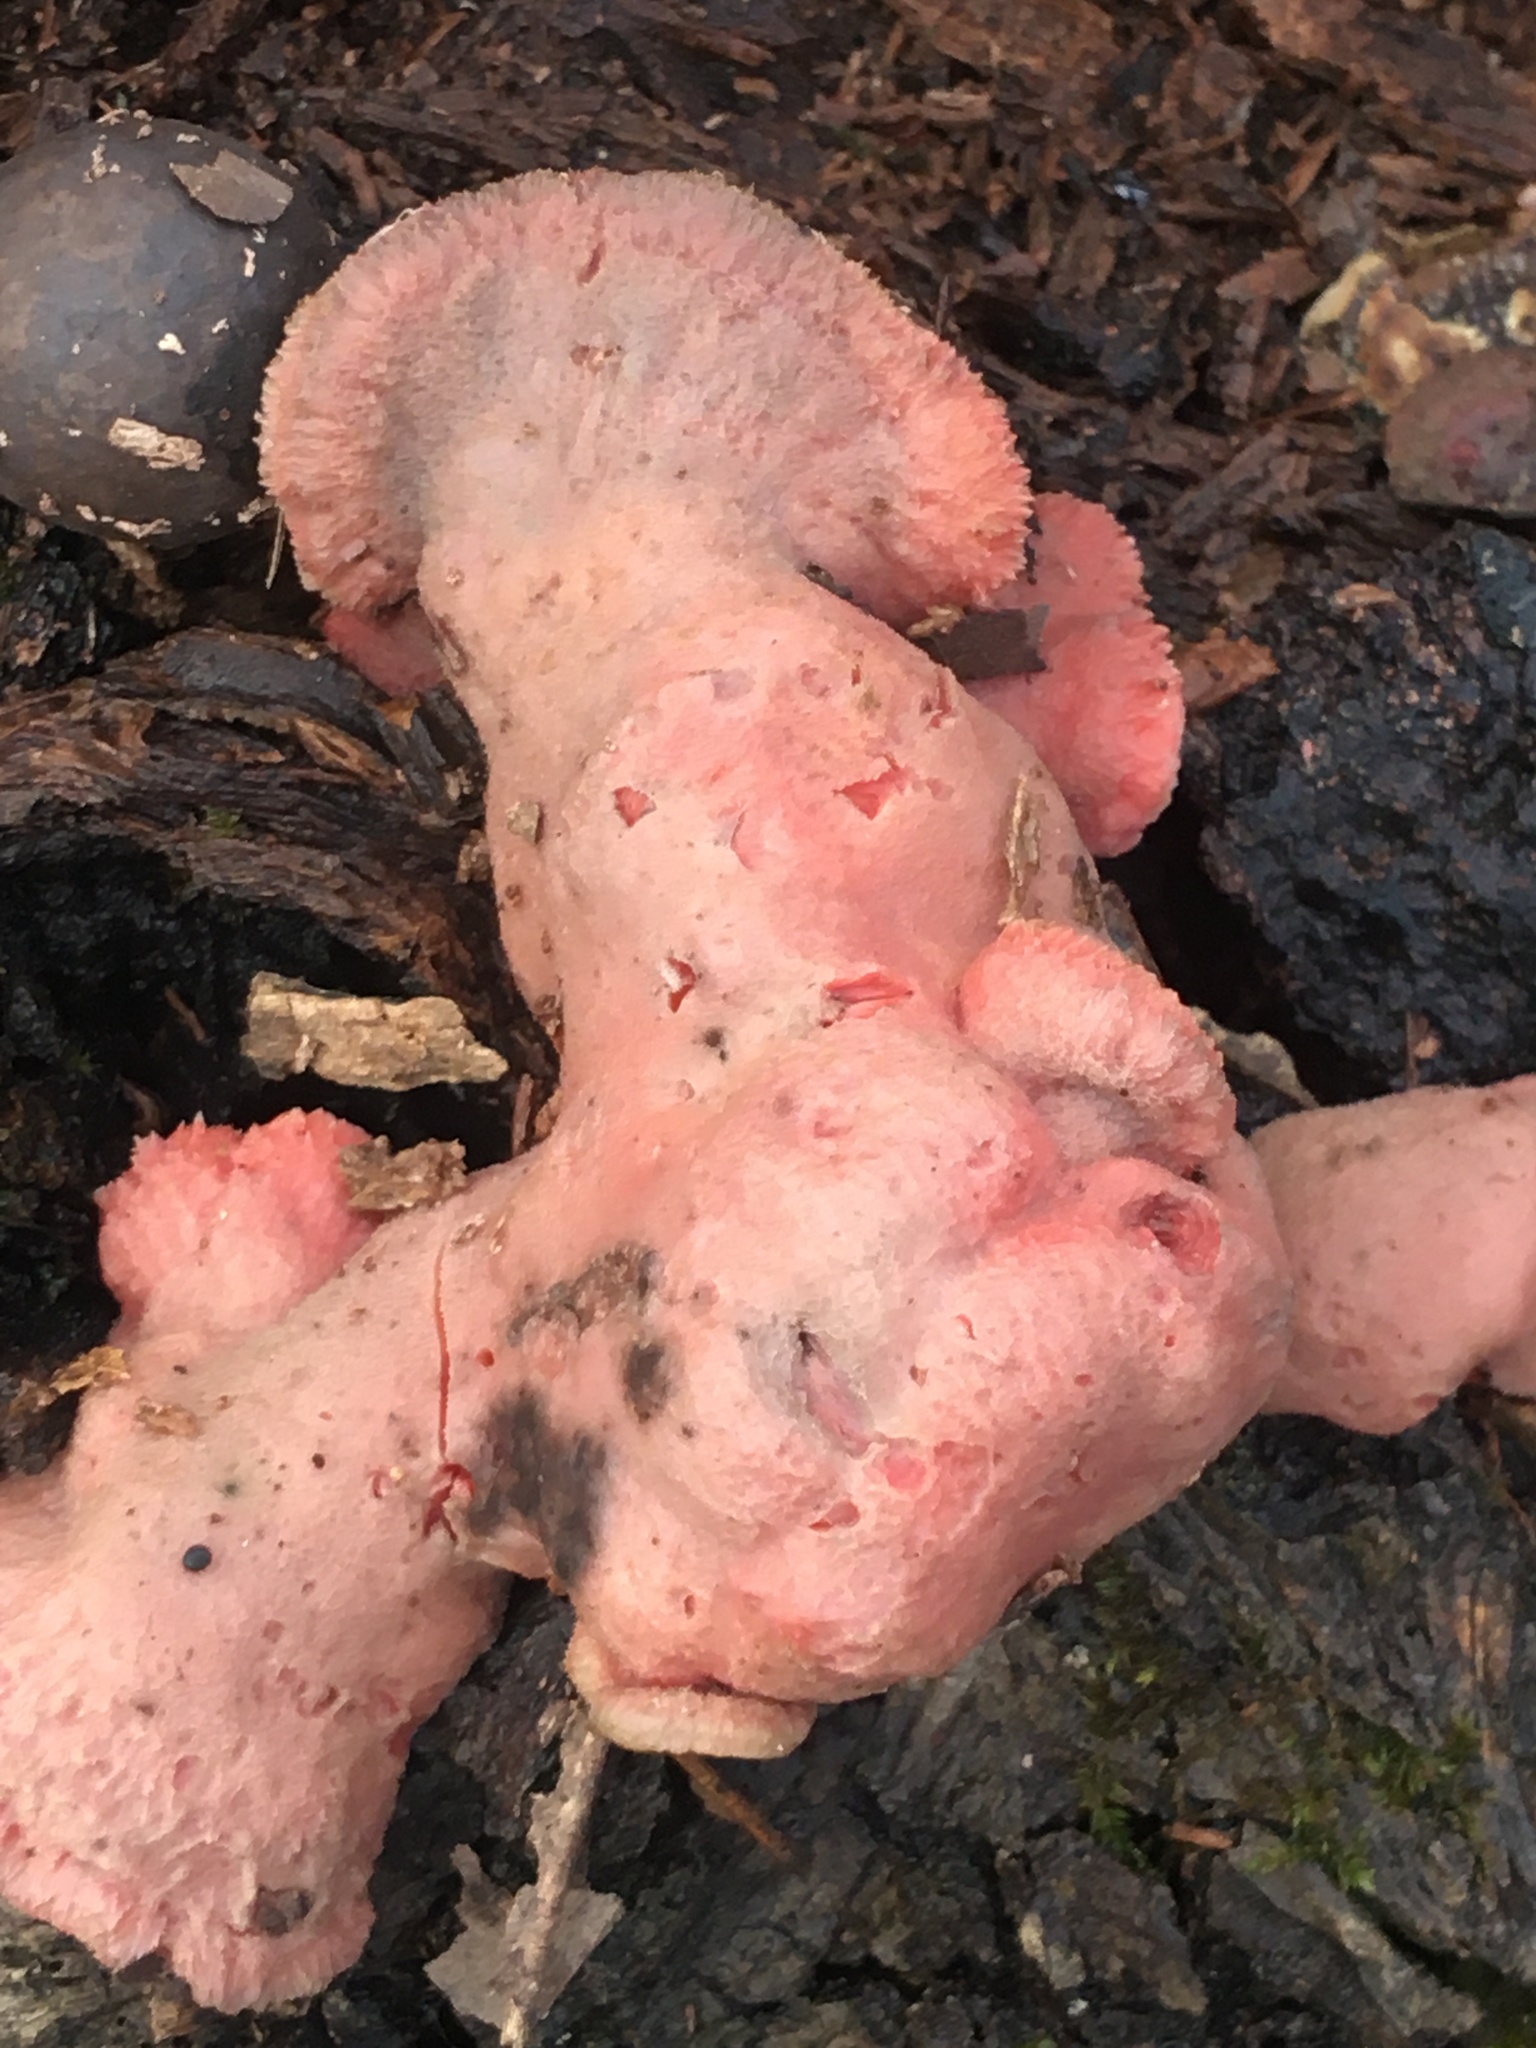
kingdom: Fungi
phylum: Basidiomycota
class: Agaricomycetes
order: Polyporales
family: Irpicaceae
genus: Byssomerulius
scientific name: Byssomerulius incarnatus
